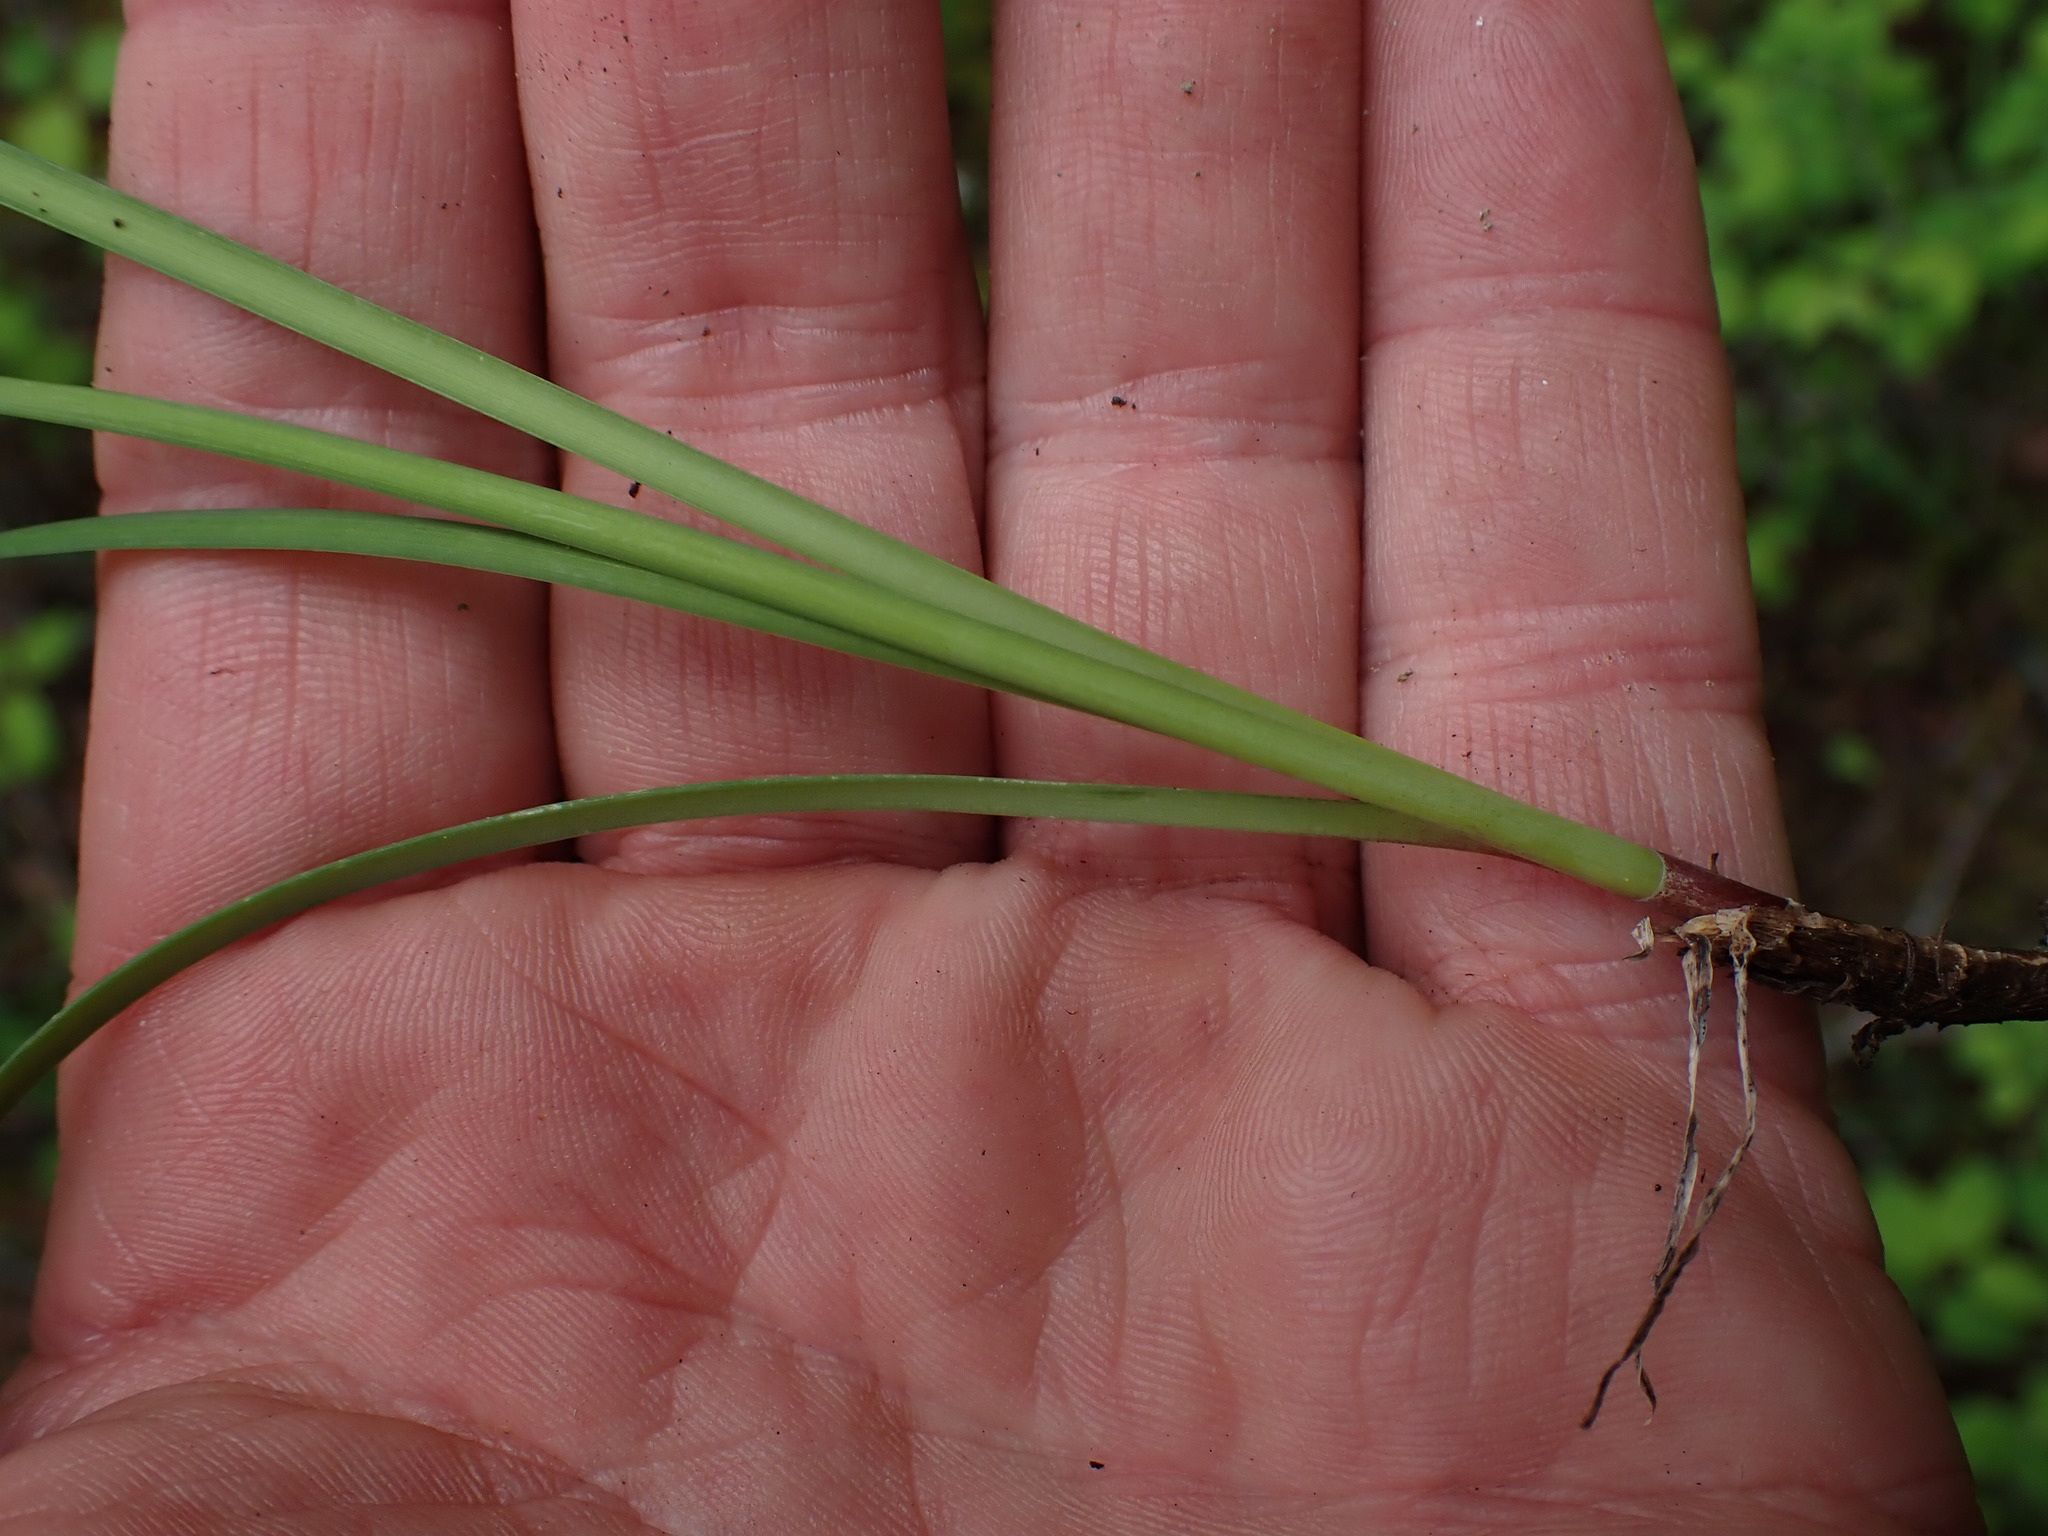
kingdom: Plantae
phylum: Tracheophyta
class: Liliopsida
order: Asparagales
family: Amaryllidaceae
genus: Allium
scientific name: Allium cernuum
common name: Nodding onion
